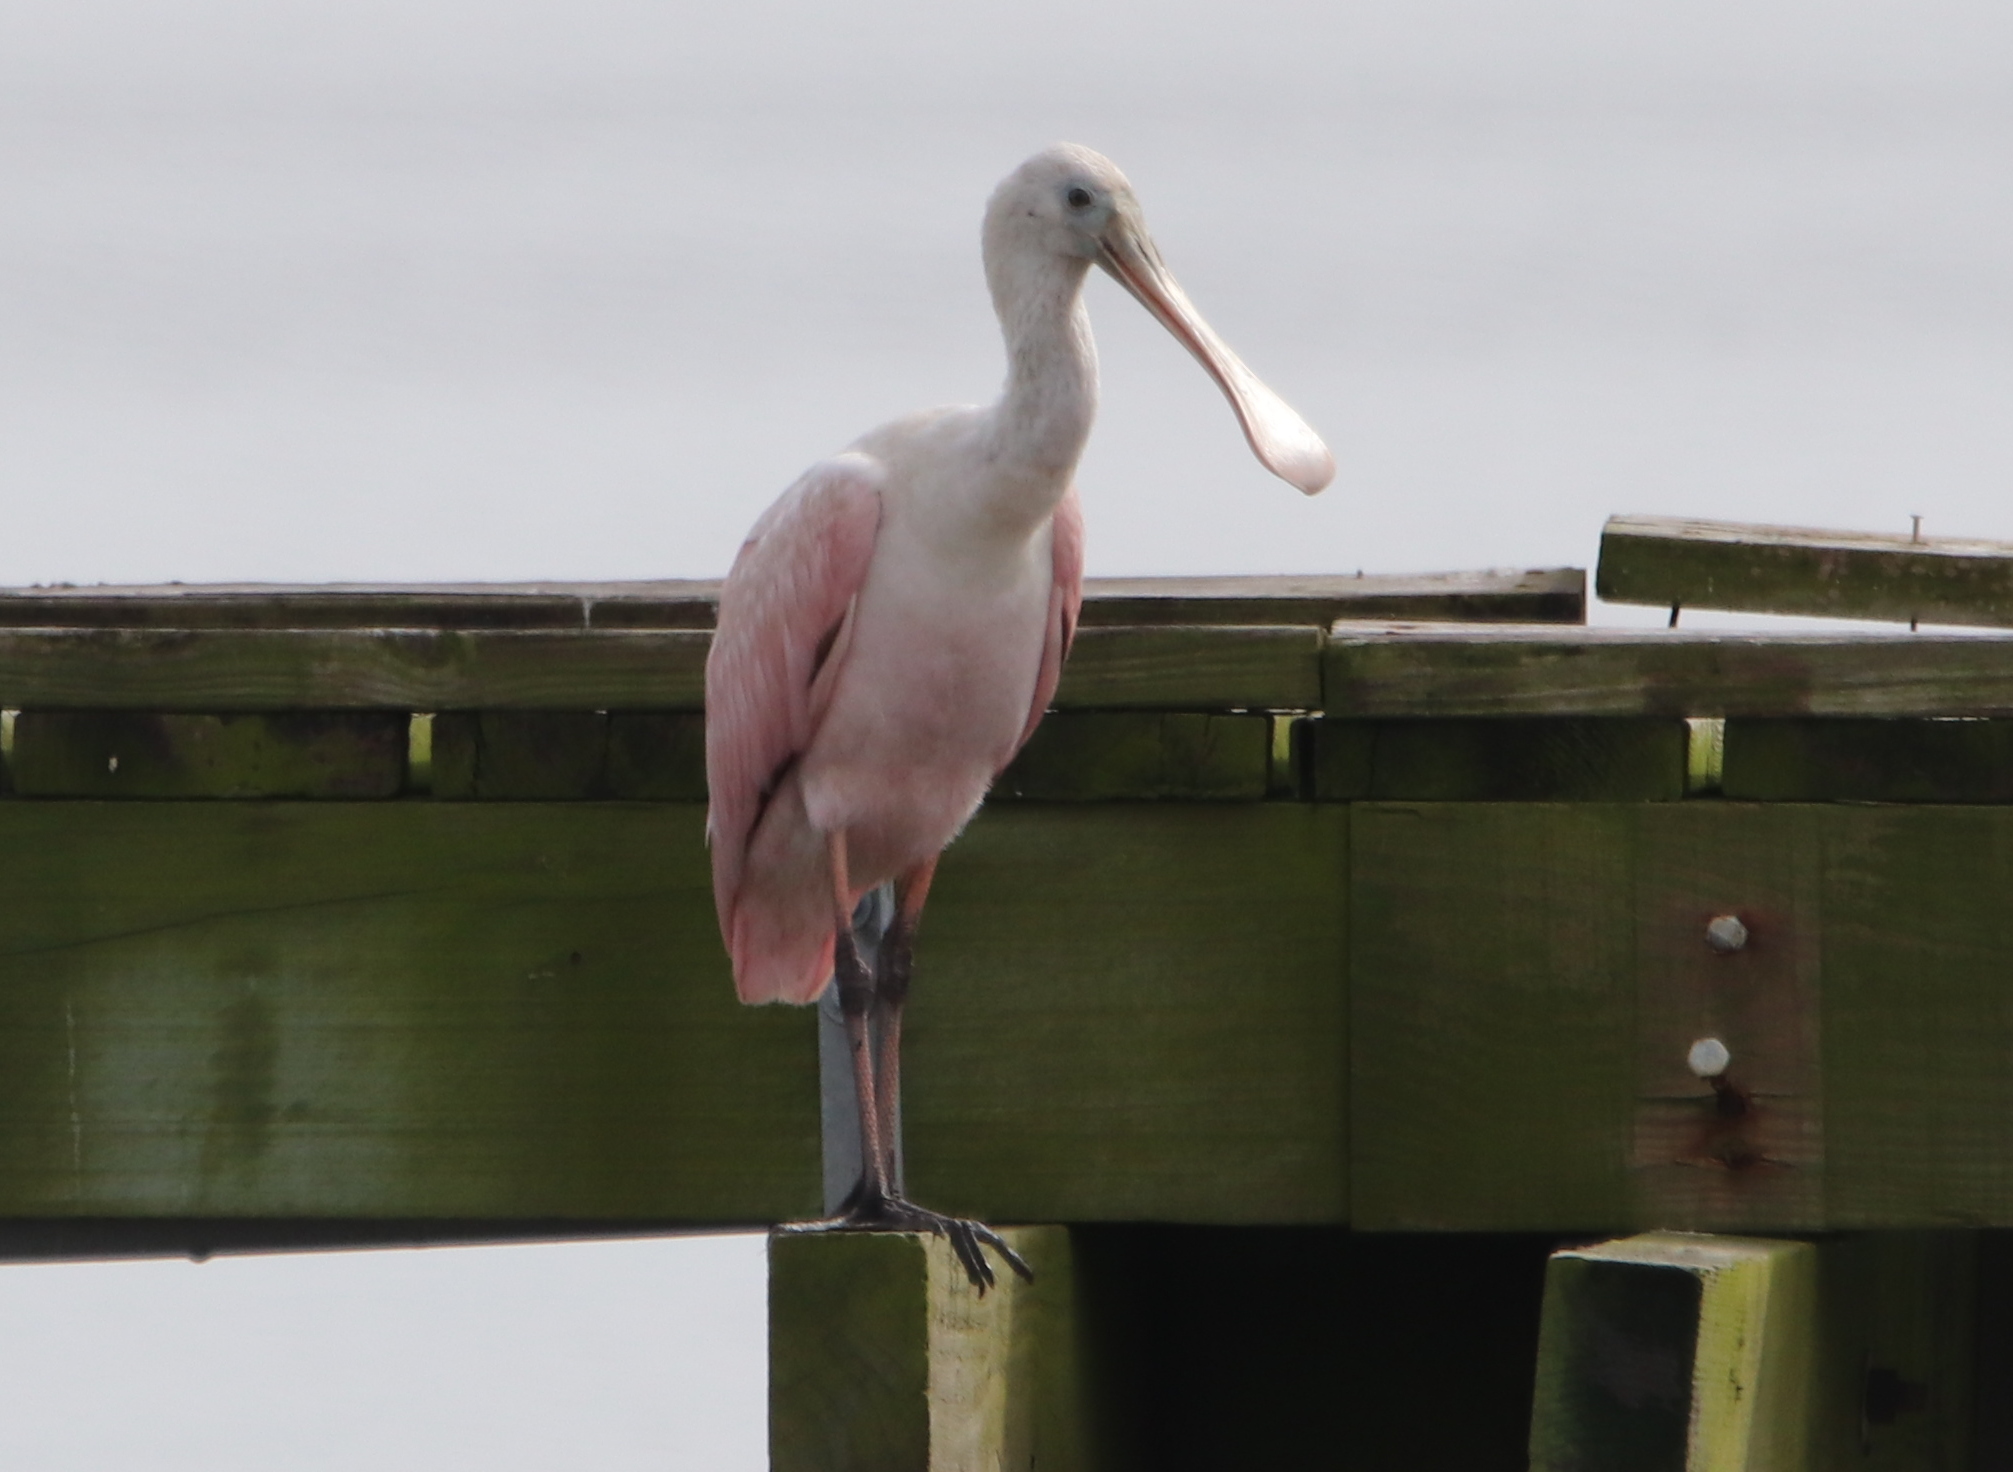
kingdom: Animalia
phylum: Chordata
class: Aves
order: Pelecaniformes
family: Threskiornithidae
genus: Platalea
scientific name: Platalea ajaja
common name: Roseate spoonbill
